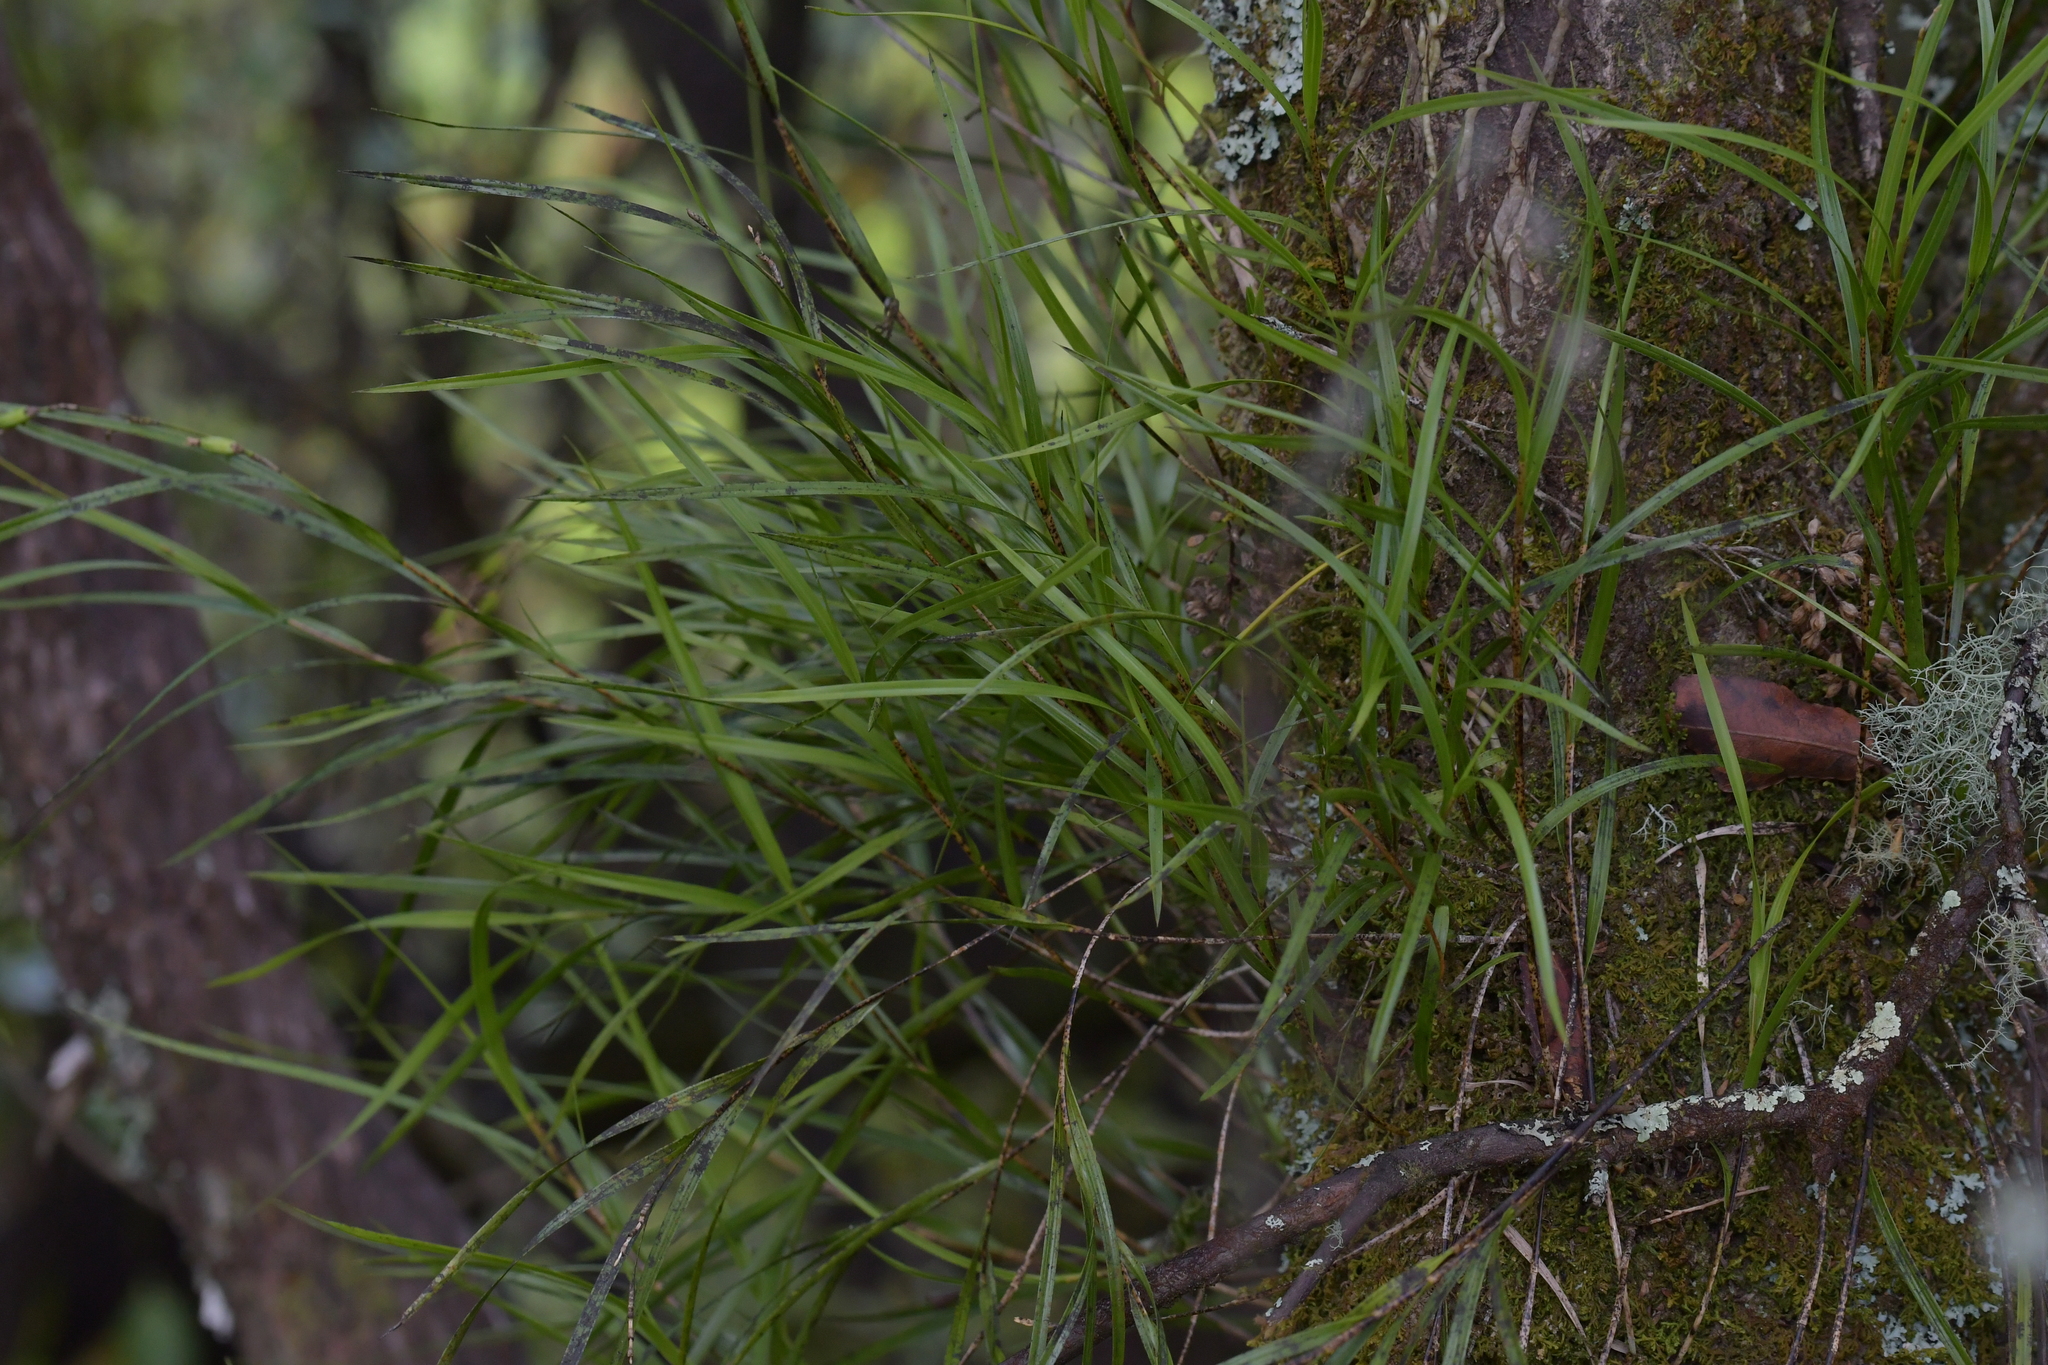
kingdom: Plantae
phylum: Tracheophyta
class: Liliopsida
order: Asparagales
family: Orchidaceae
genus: Earina
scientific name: Earina mucronata
